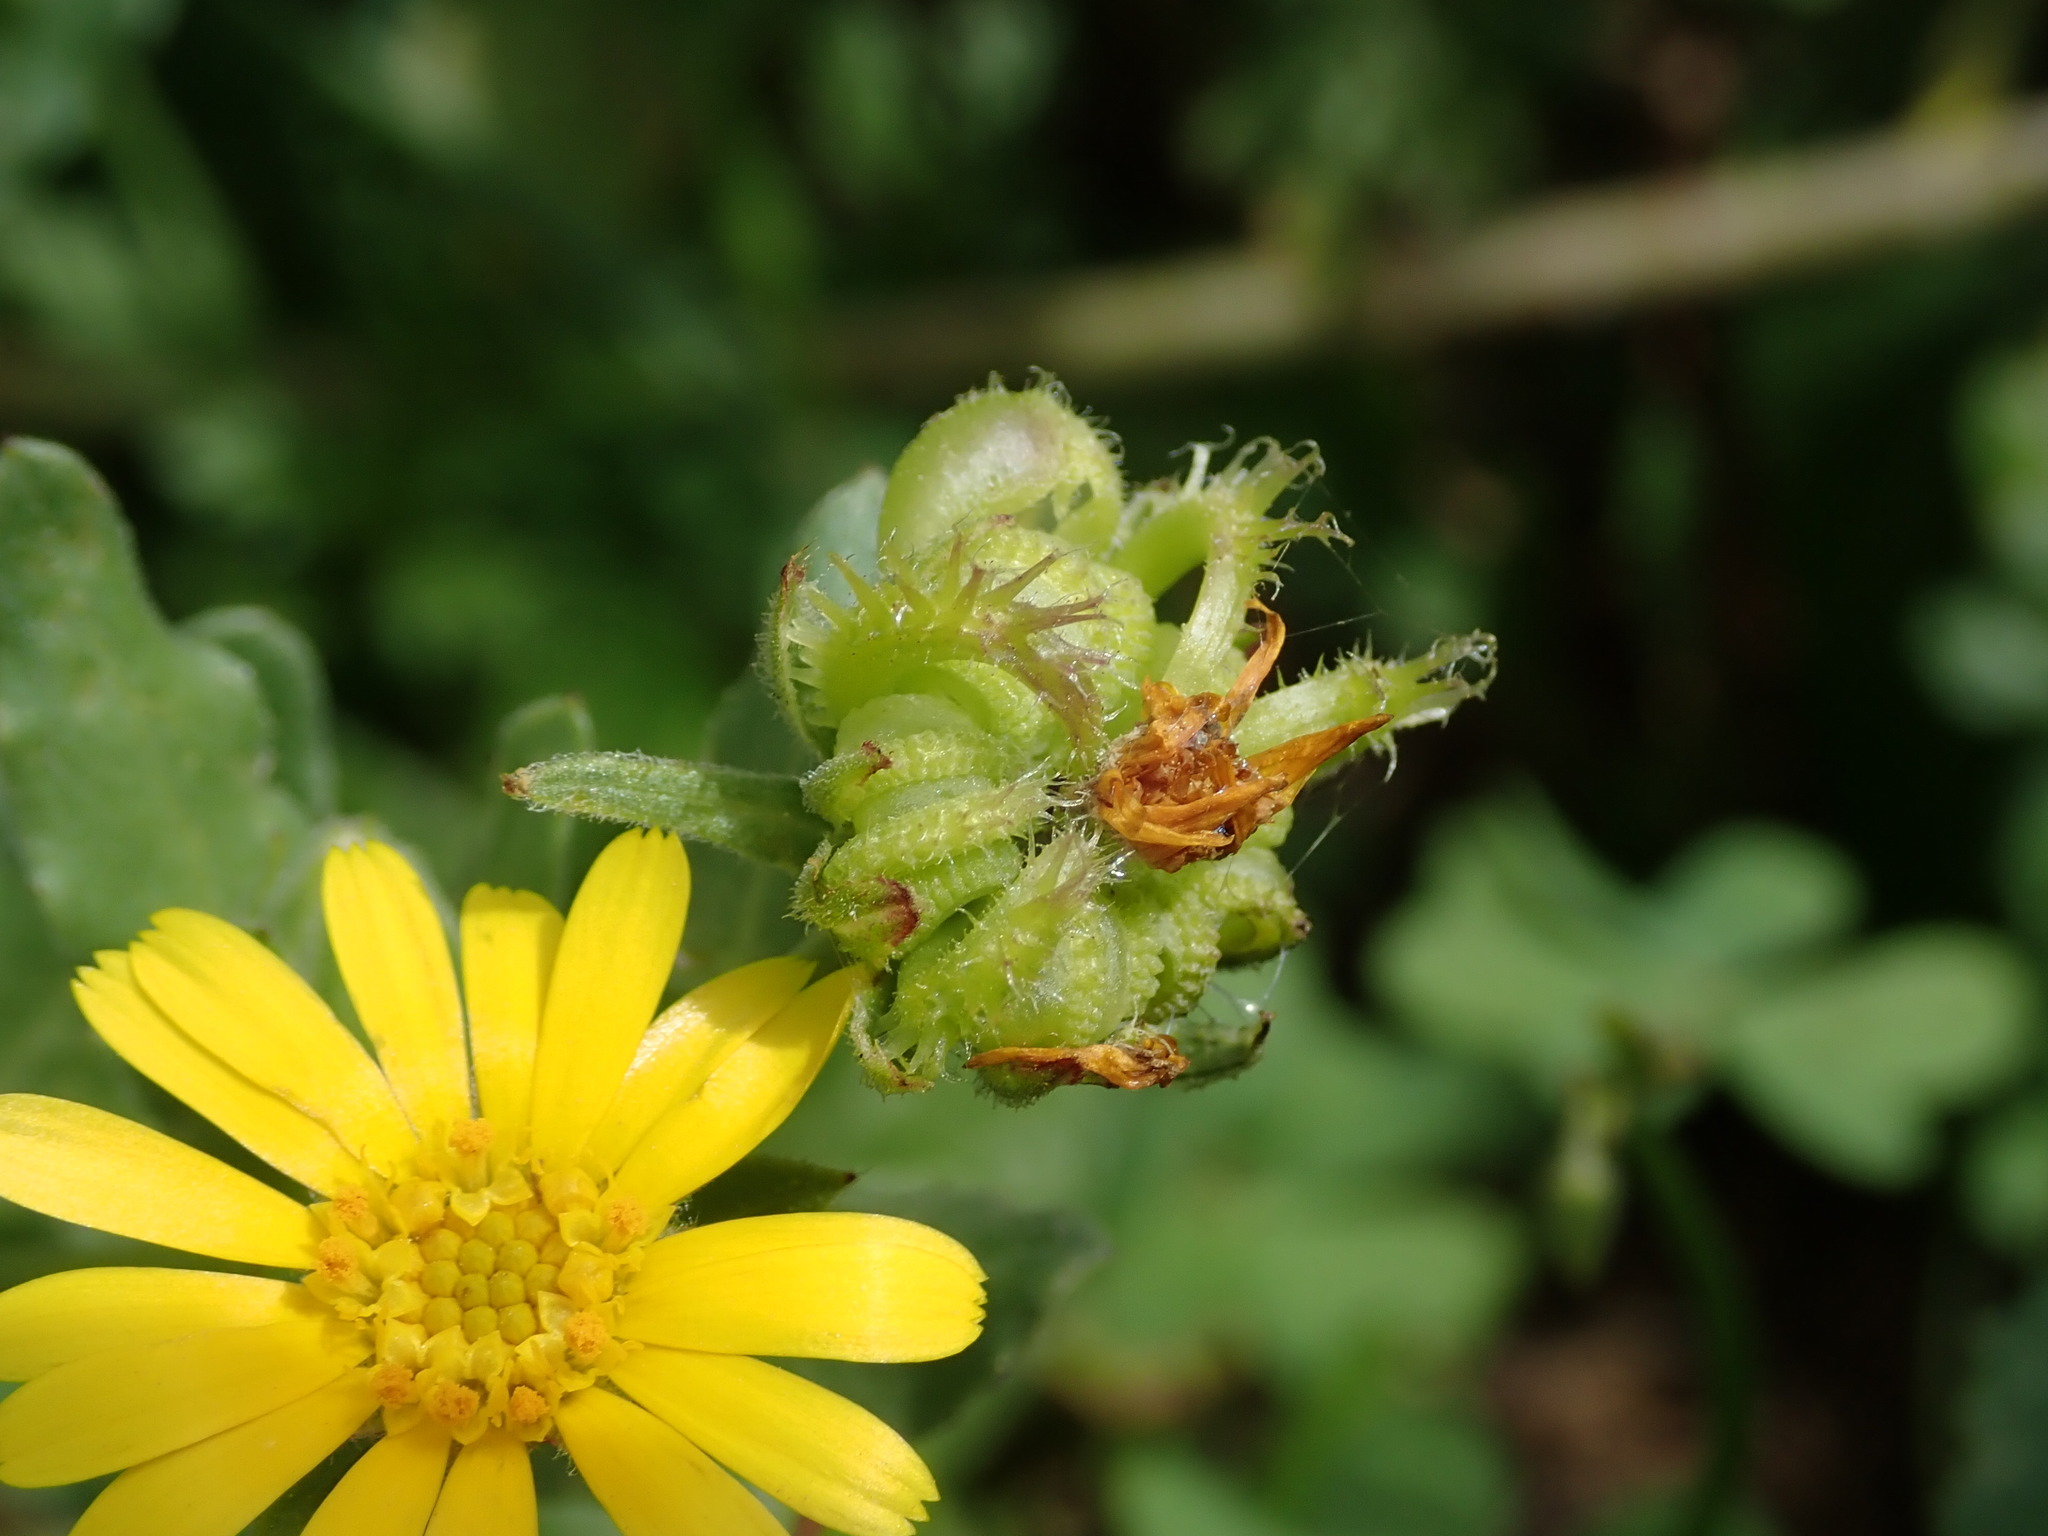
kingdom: Plantae
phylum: Tracheophyta
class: Magnoliopsida
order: Asterales
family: Asteraceae
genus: Calendula
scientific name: Calendula arvensis
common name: Field marigold
